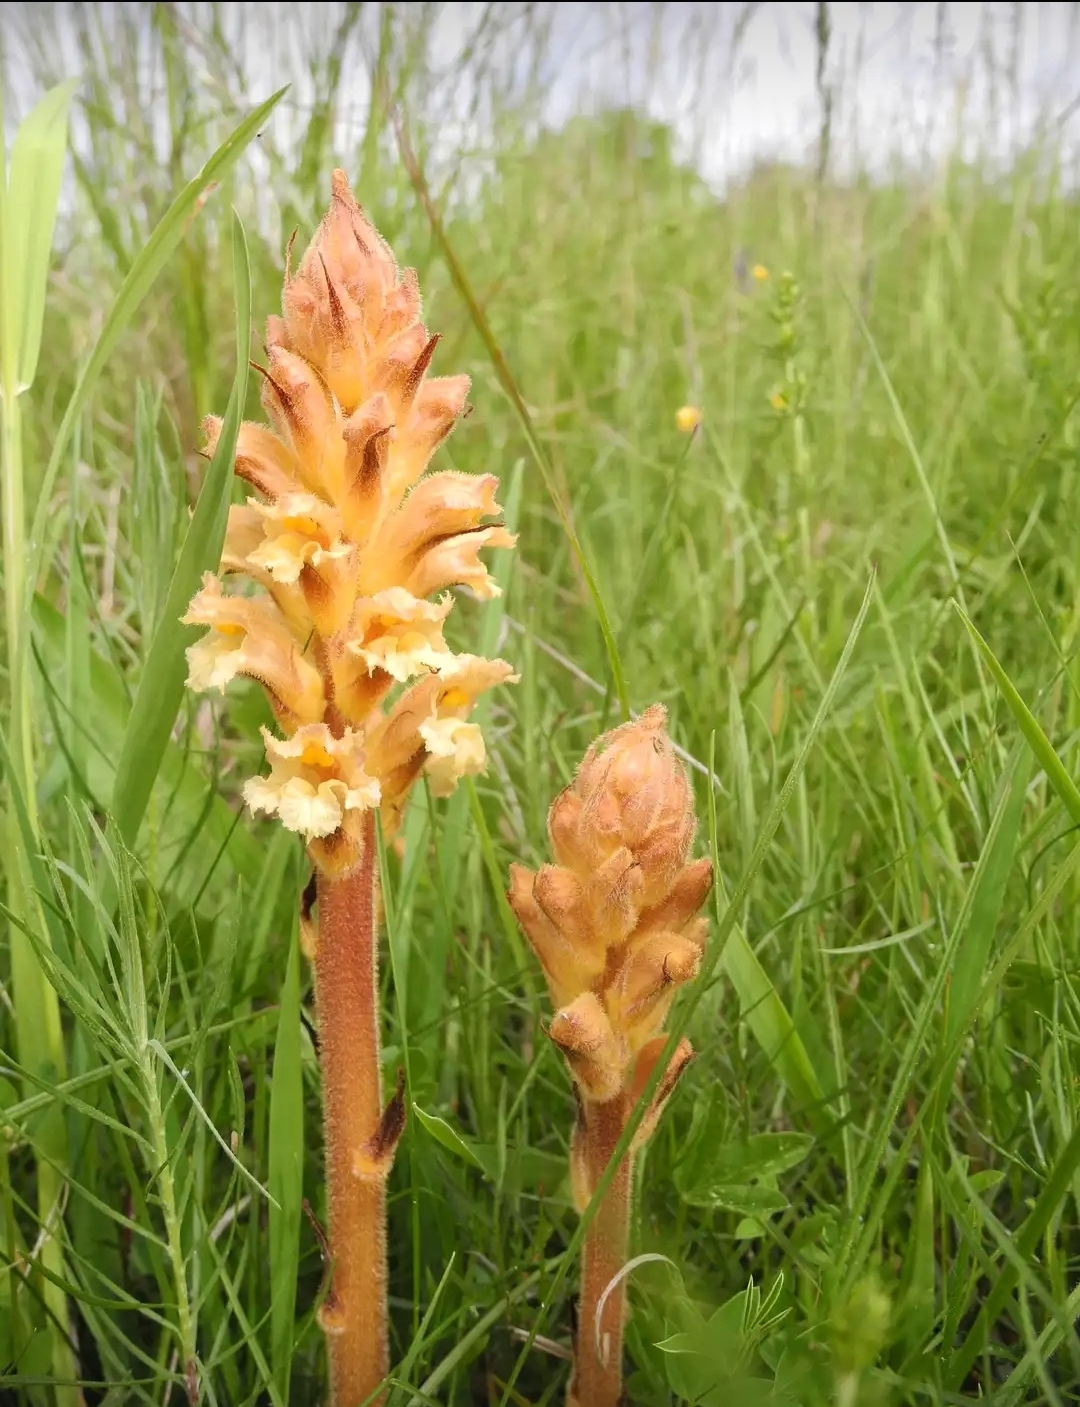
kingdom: Plantae
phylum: Tracheophyta
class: Magnoliopsida
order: Lamiales
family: Orobanchaceae
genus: Orobanche
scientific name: Orobanche lutea
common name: Yellow broomrape
